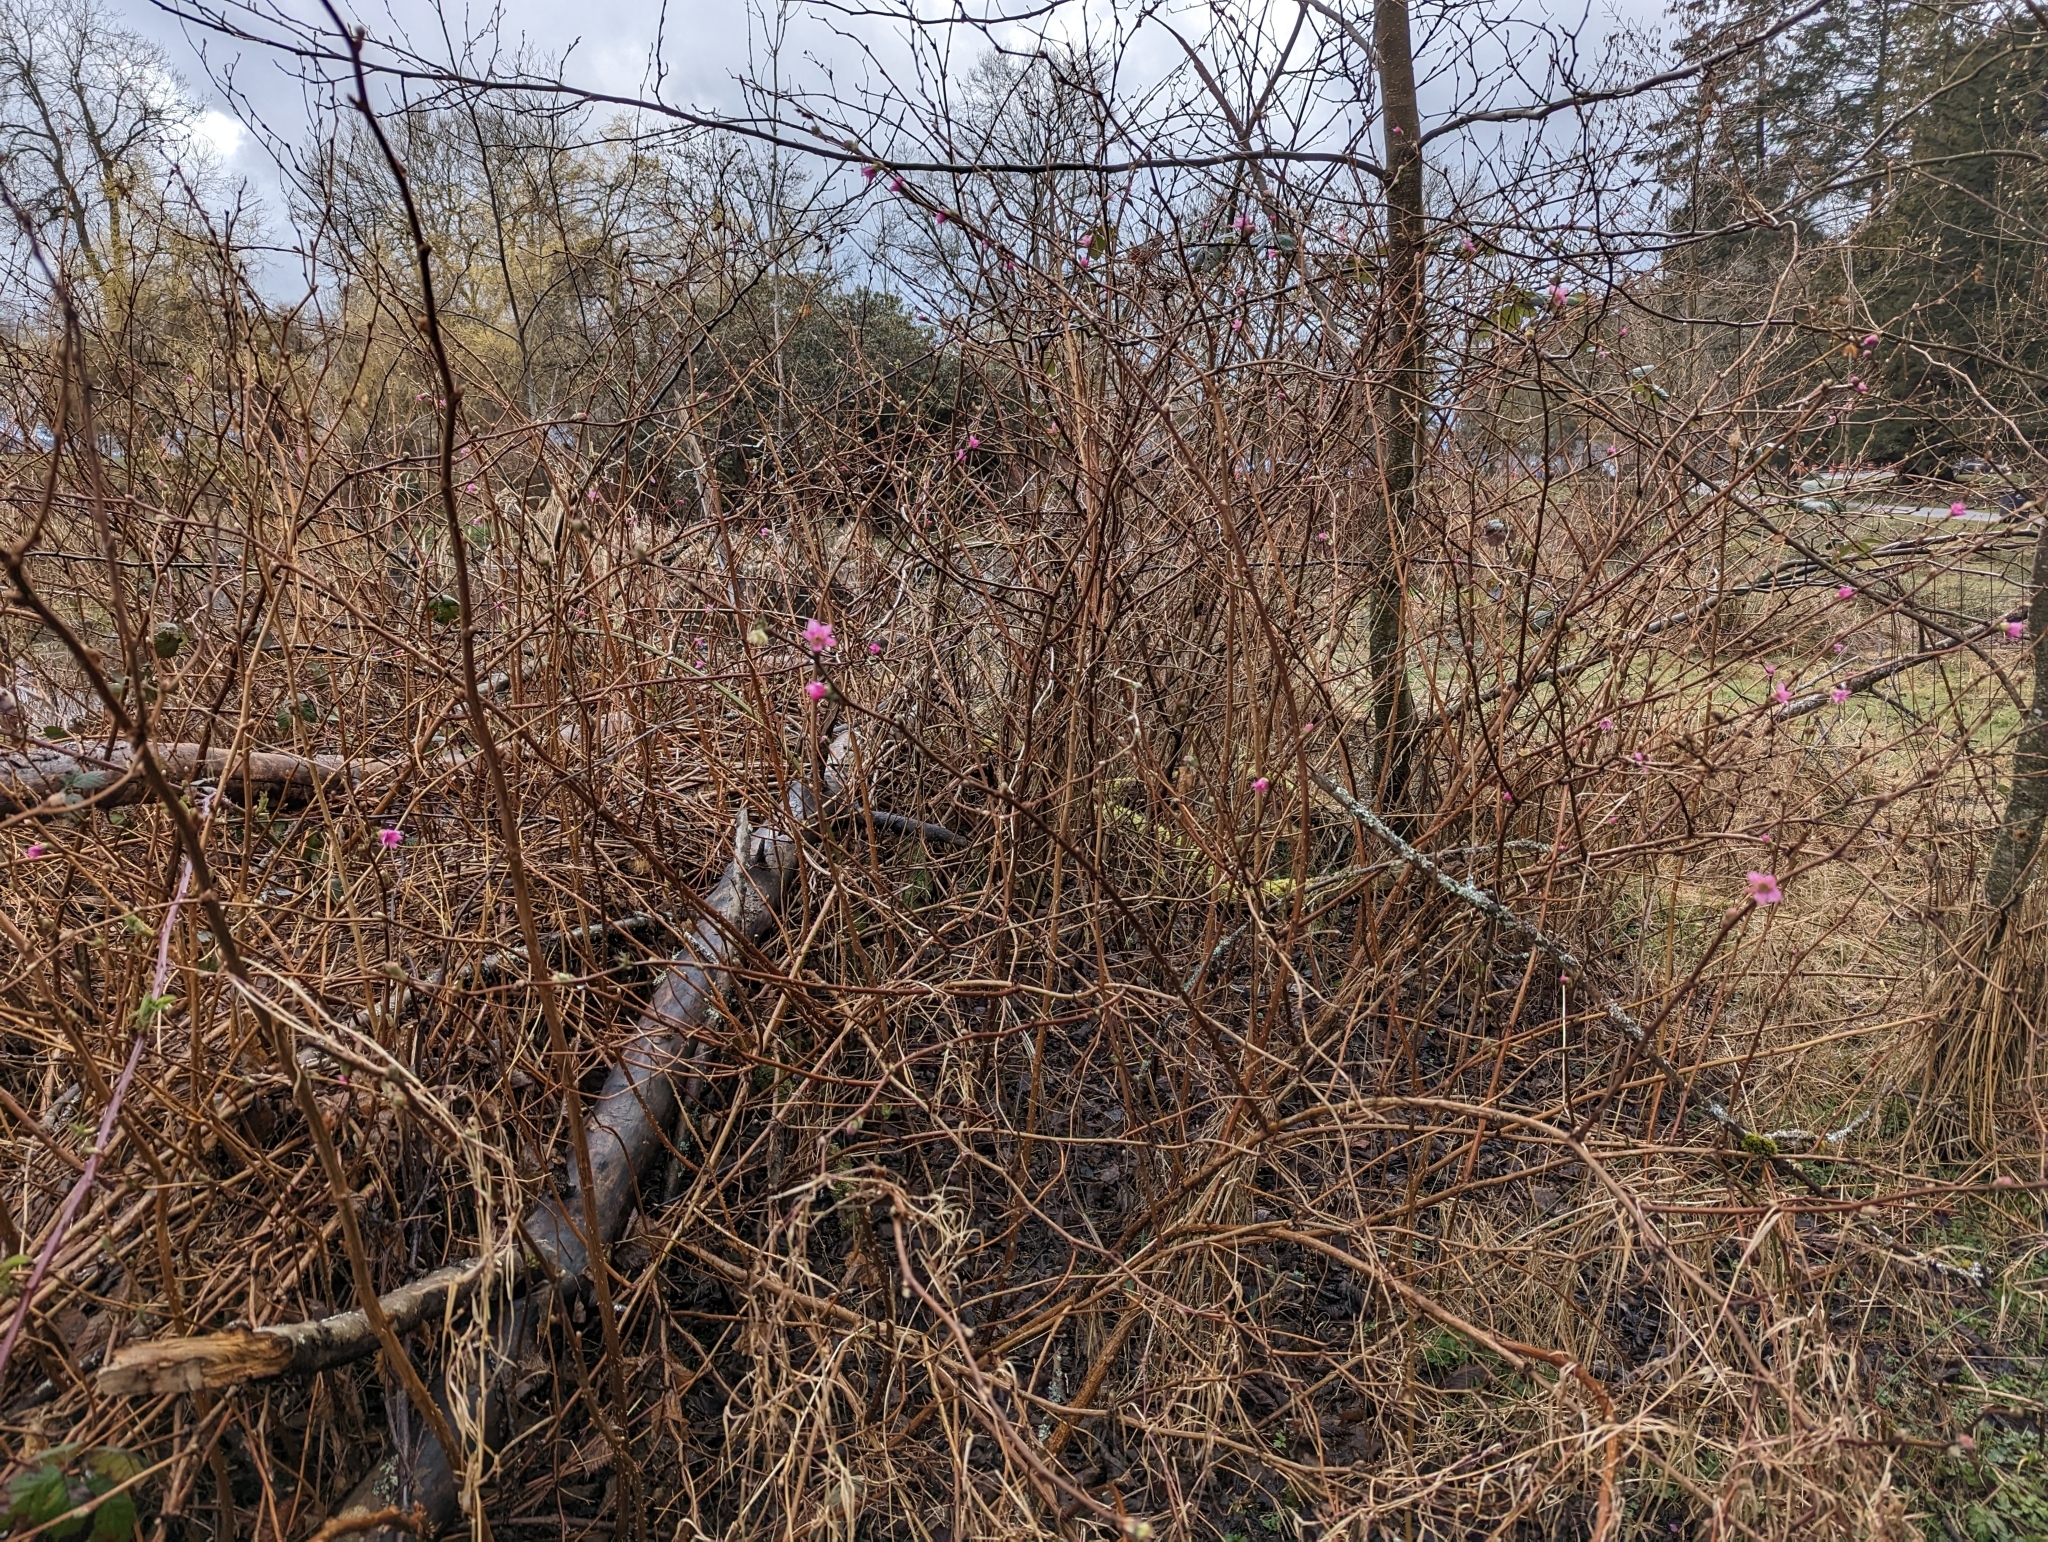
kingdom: Plantae
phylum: Tracheophyta
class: Magnoliopsida
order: Rosales
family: Rosaceae
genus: Rubus
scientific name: Rubus spectabilis
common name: Salmonberry
